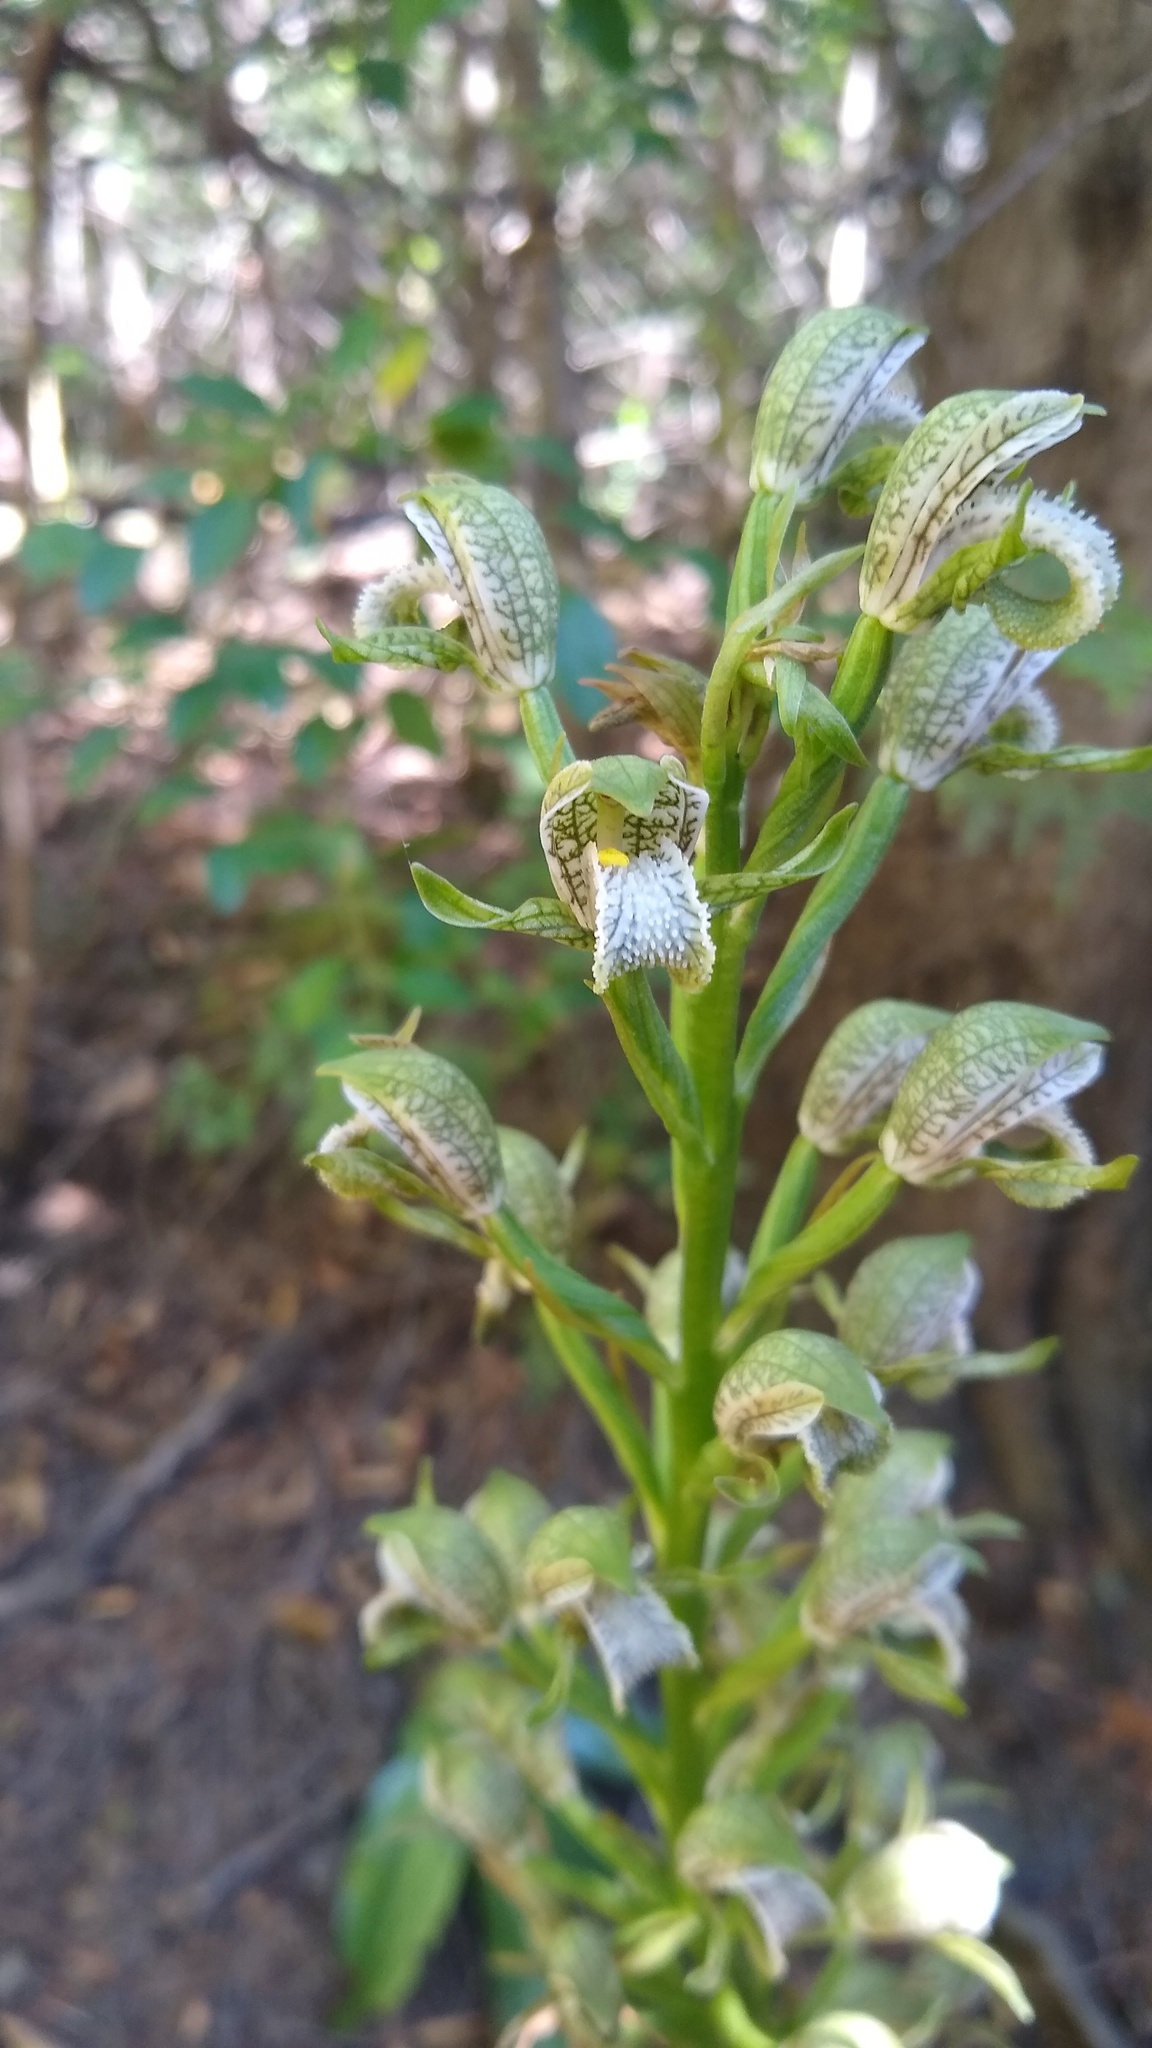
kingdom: Plantae
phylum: Tracheophyta
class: Liliopsida
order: Asparagales
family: Orchidaceae
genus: Chloraea
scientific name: Chloraea cylindrostachya
